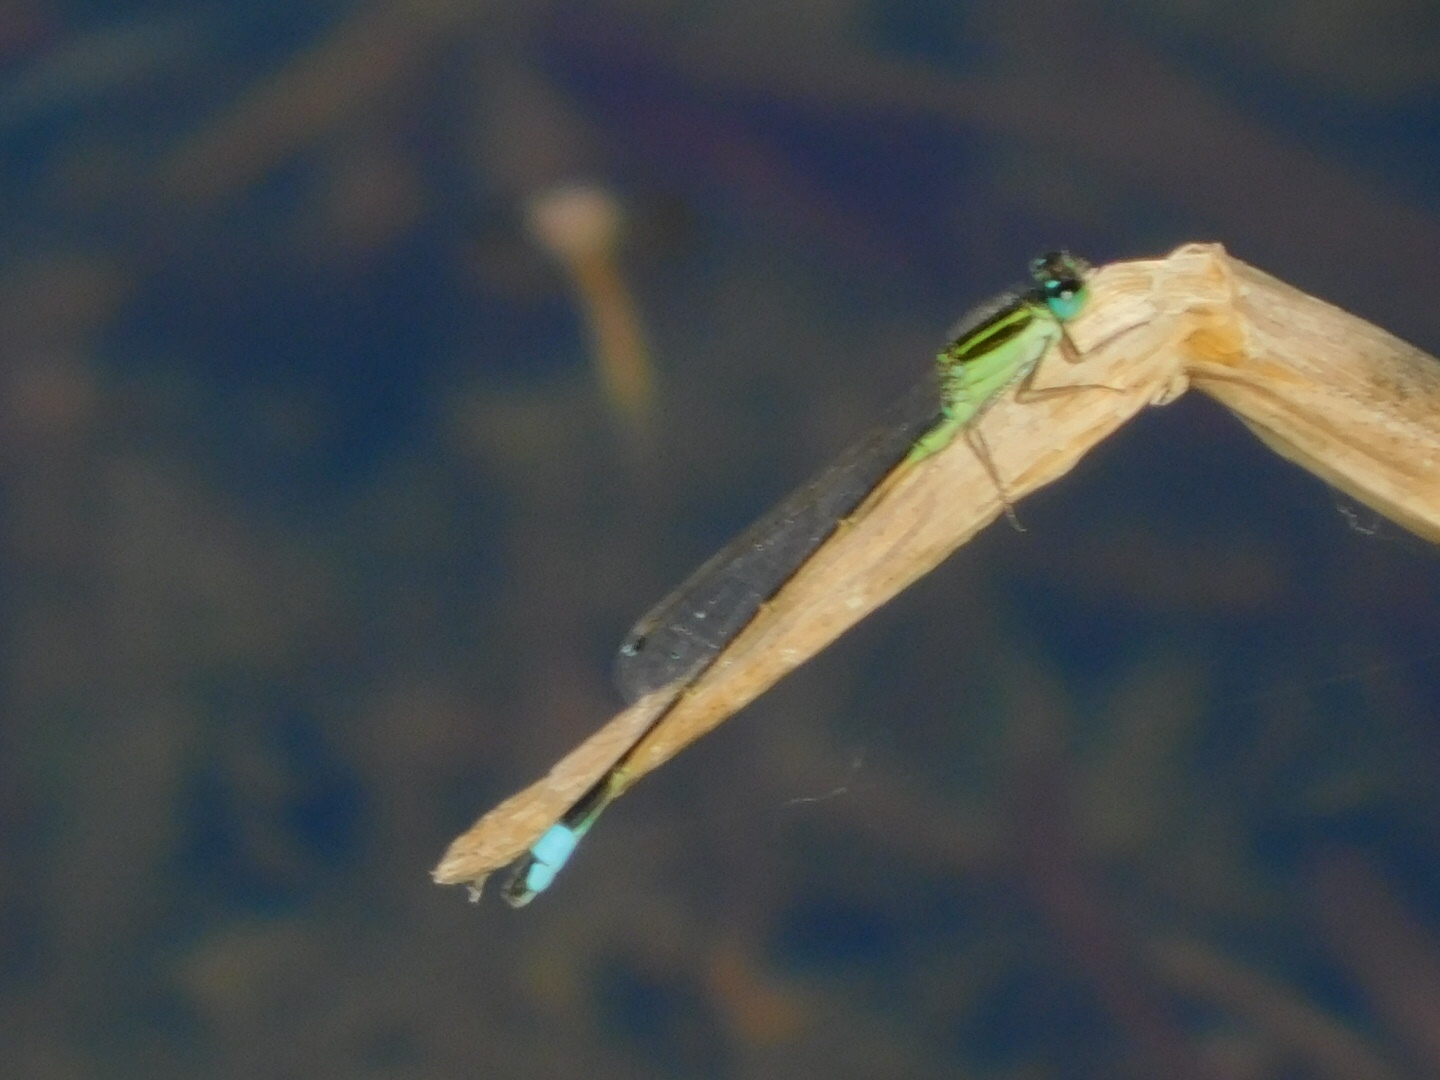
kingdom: Animalia
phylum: Arthropoda
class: Insecta
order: Odonata
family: Coenagrionidae
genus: Ischnura
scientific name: Ischnura ramburii
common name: Rambur's forktail
